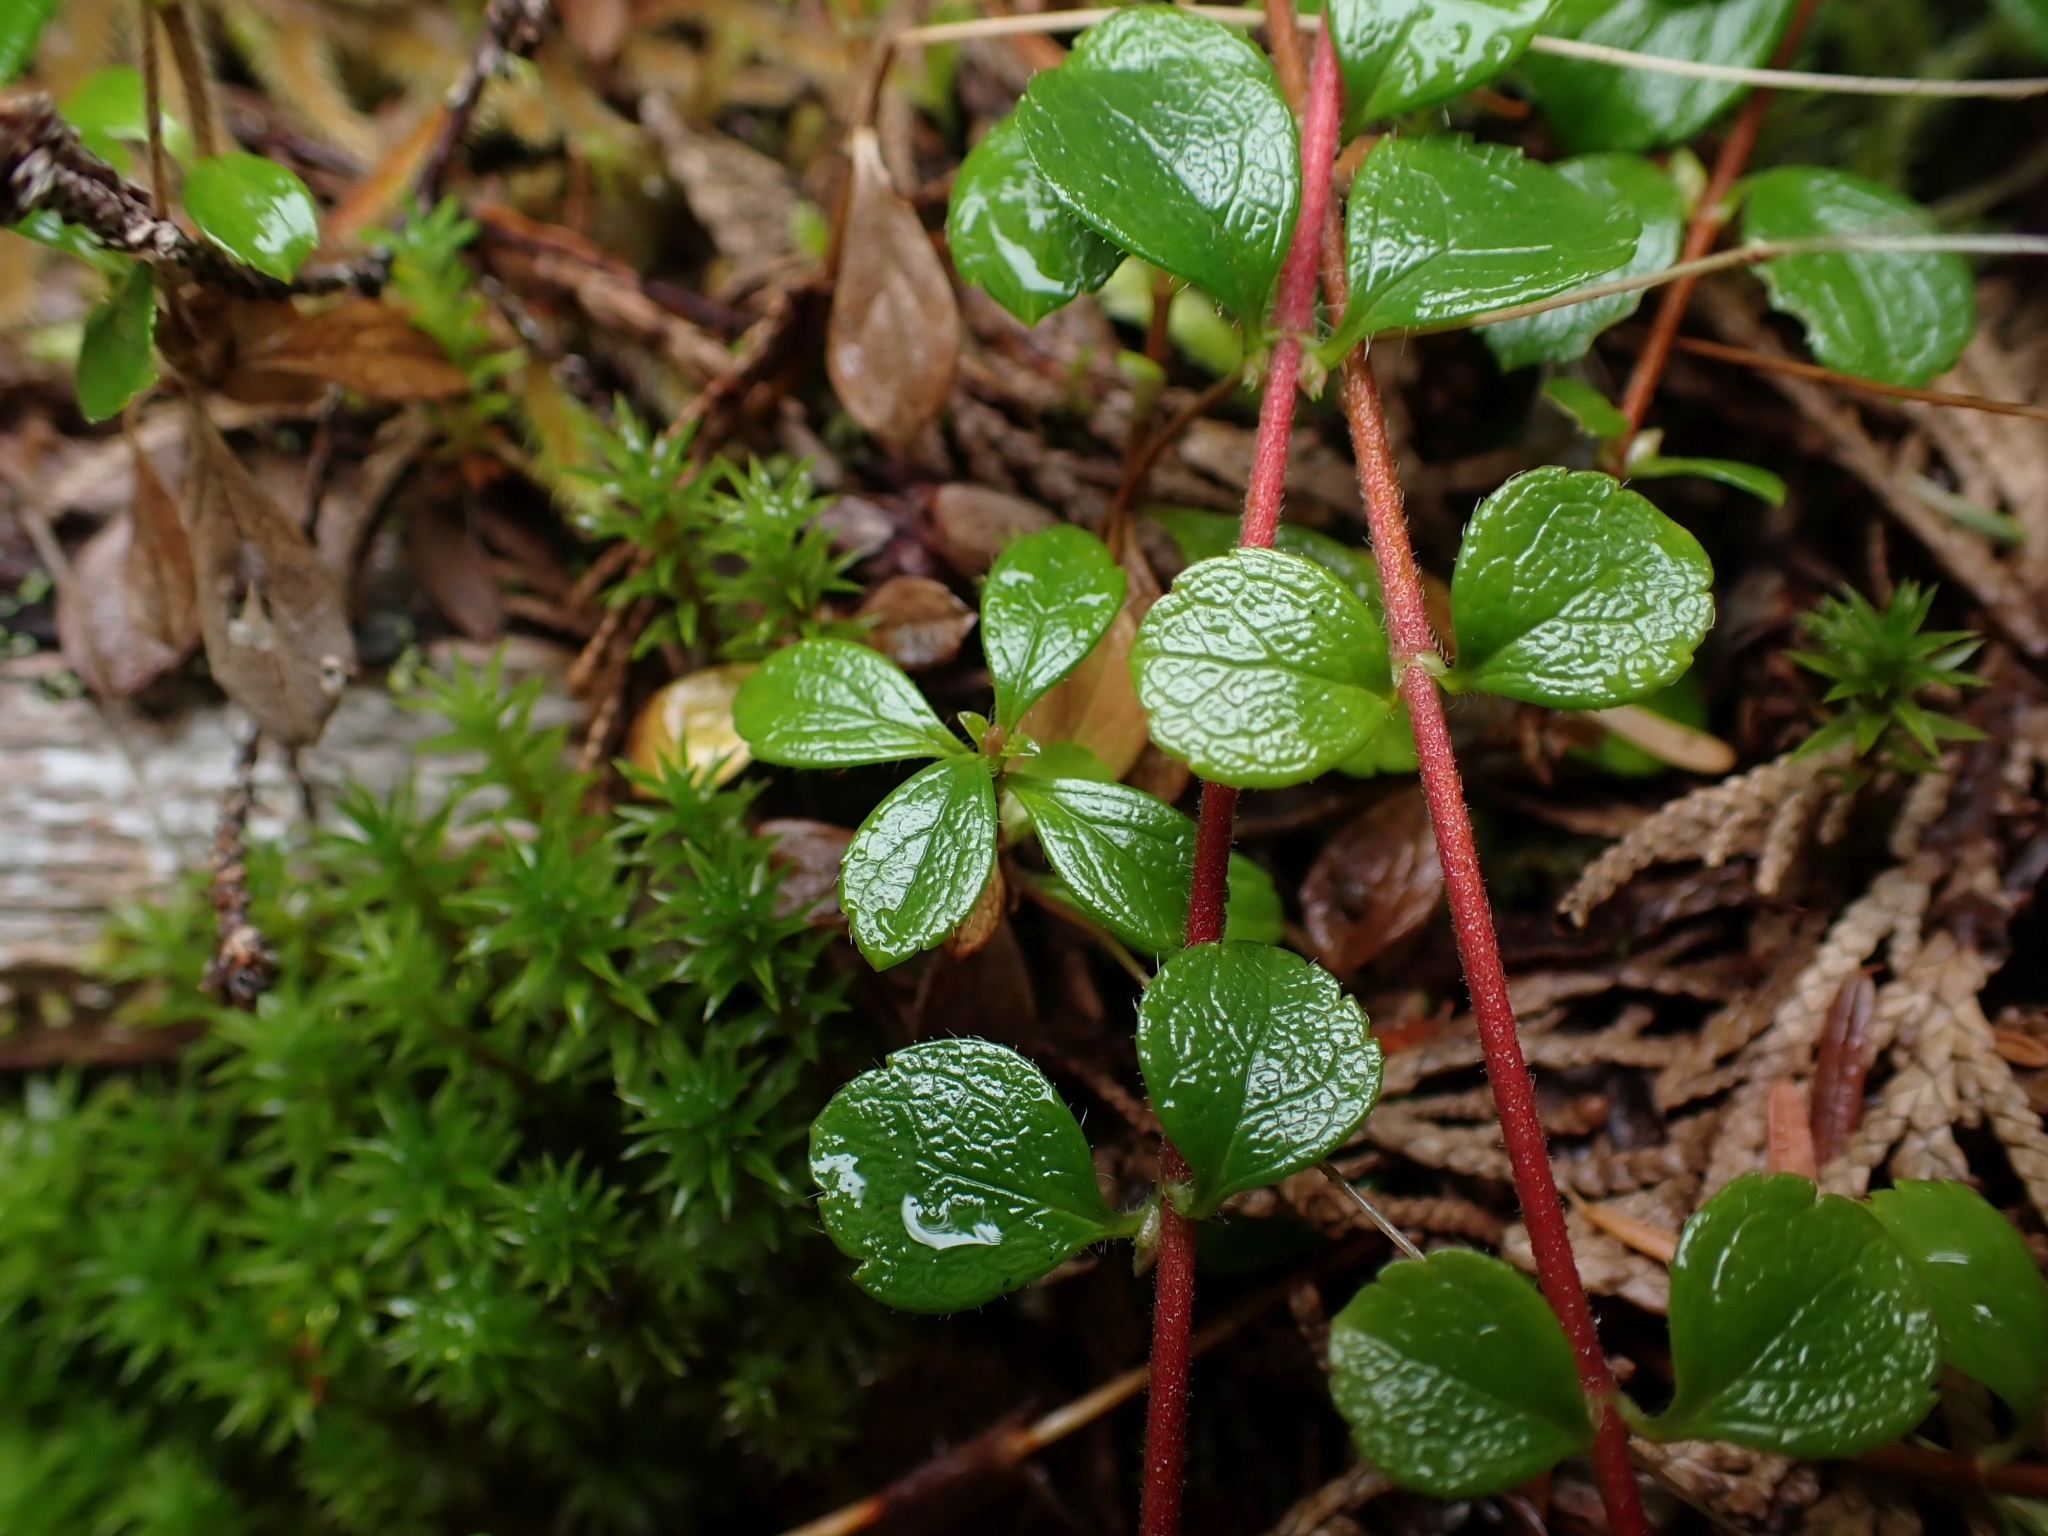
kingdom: Plantae
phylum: Tracheophyta
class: Magnoliopsida
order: Dipsacales
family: Caprifoliaceae
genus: Linnaea
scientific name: Linnaea borealis
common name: Twinflower
